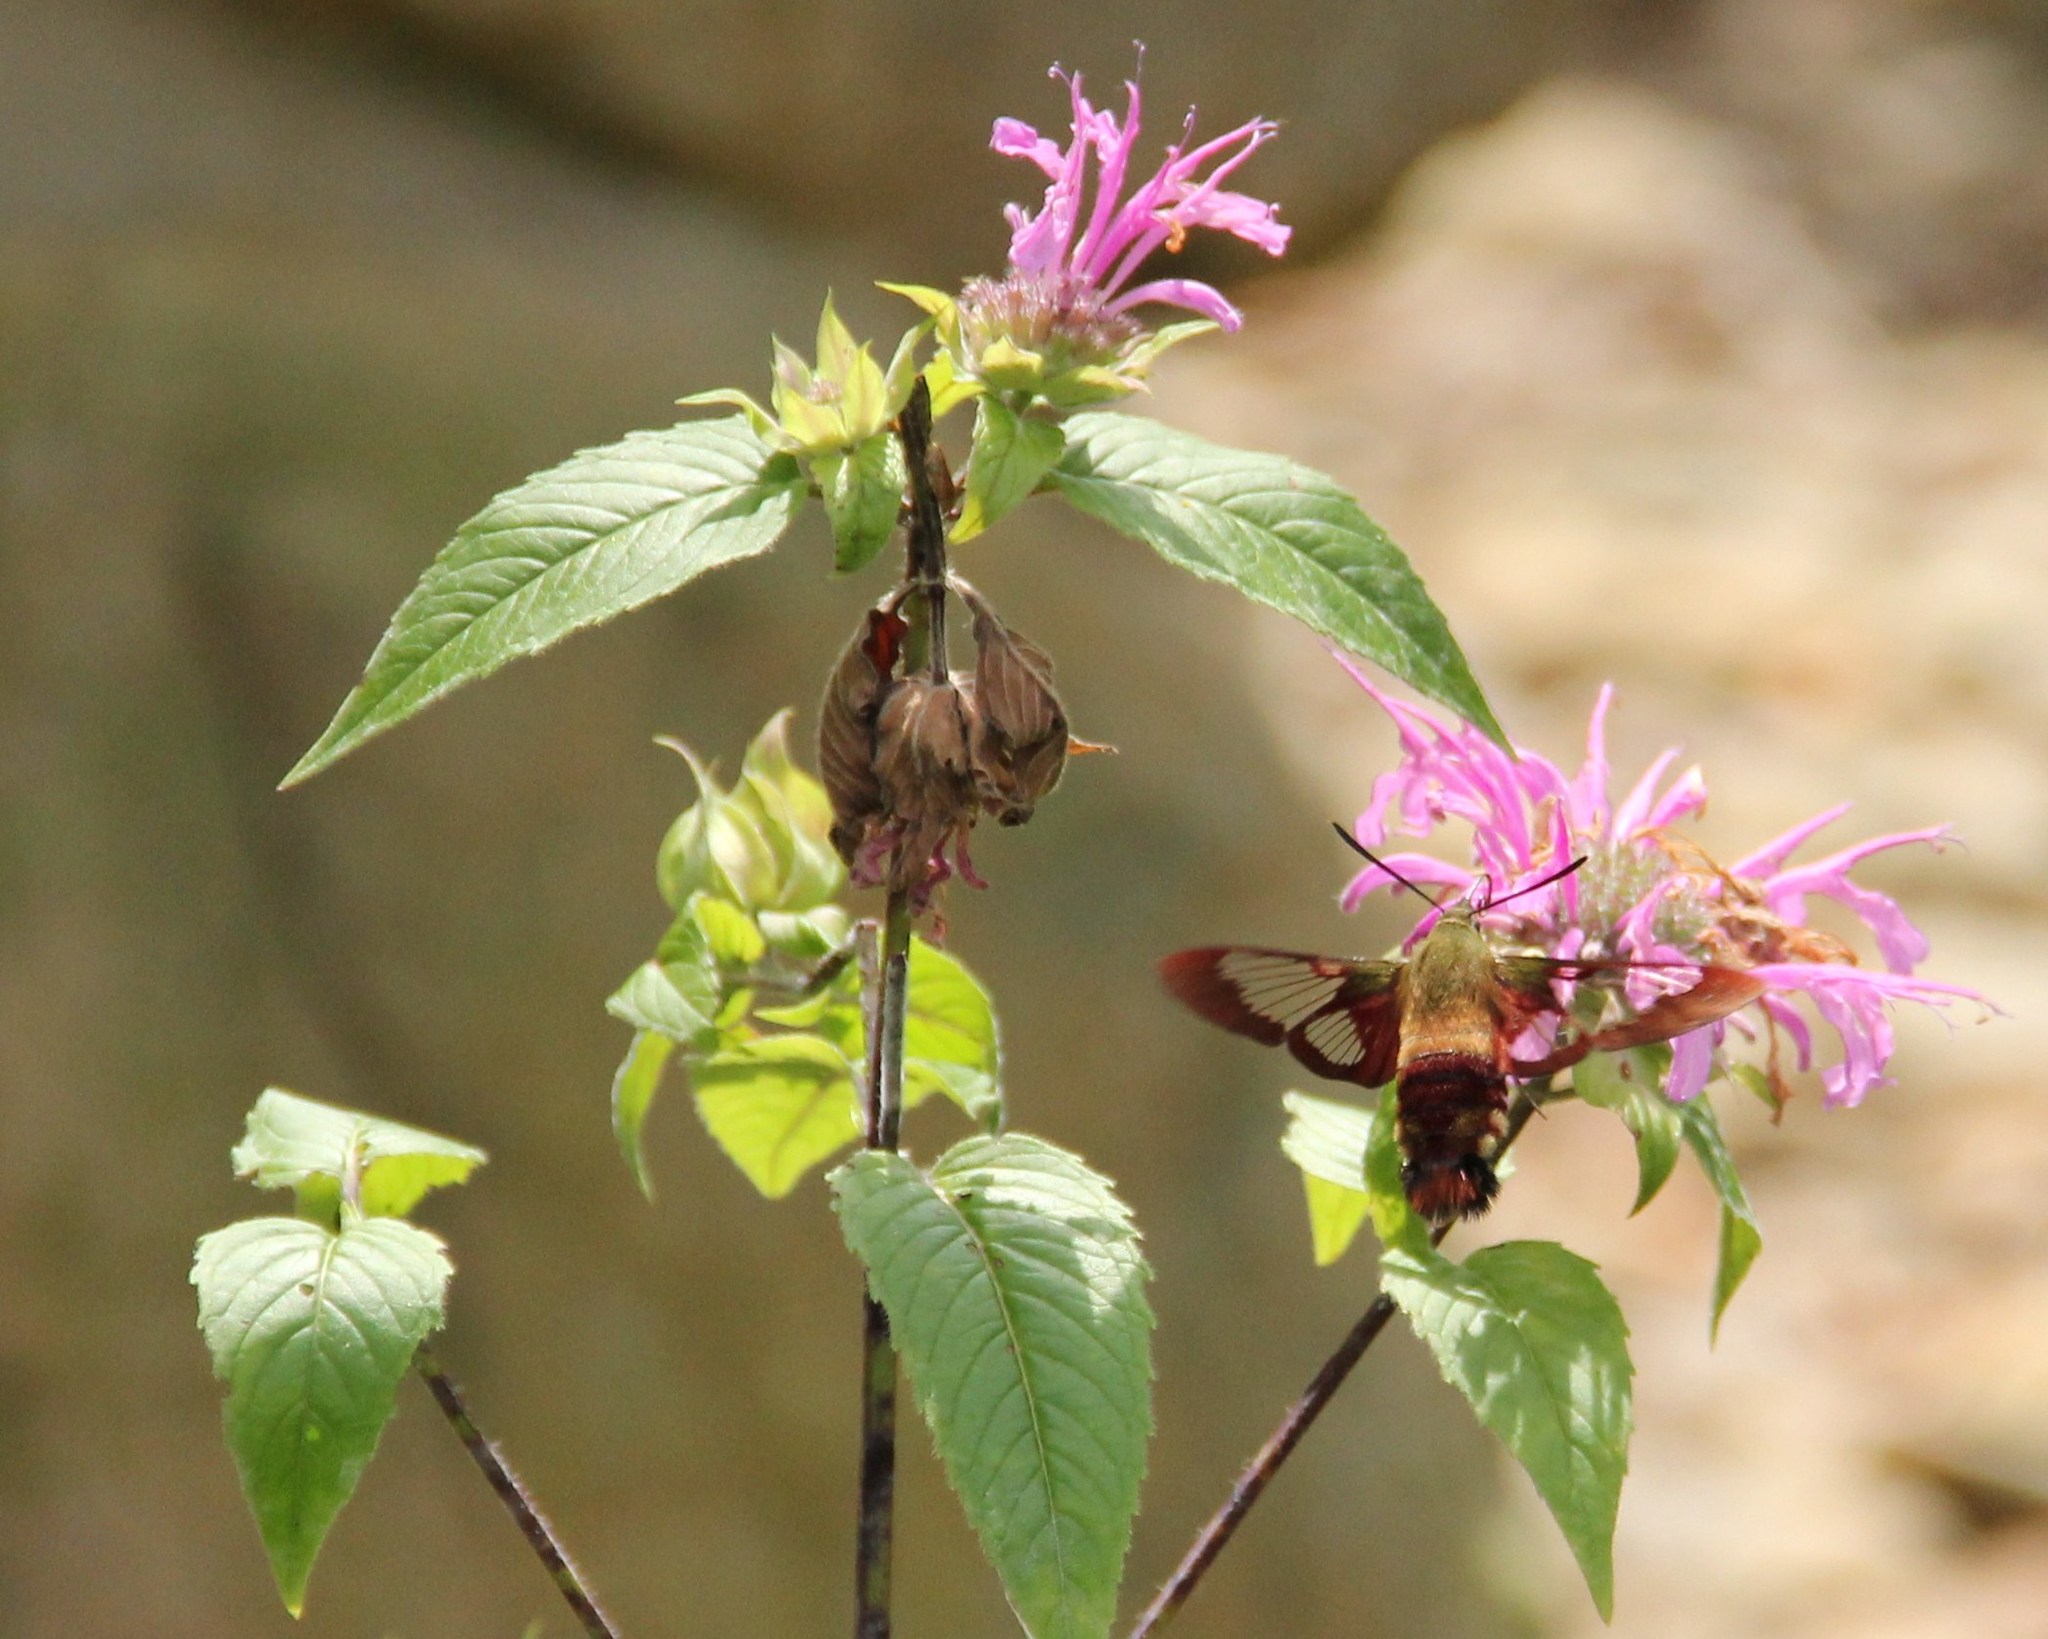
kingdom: Animalia
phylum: Arthropoda
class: Insecta
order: Lepidoptera
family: Sphingidae
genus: Hemaris
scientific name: Hemaris thysbe
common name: Common clear-wing
